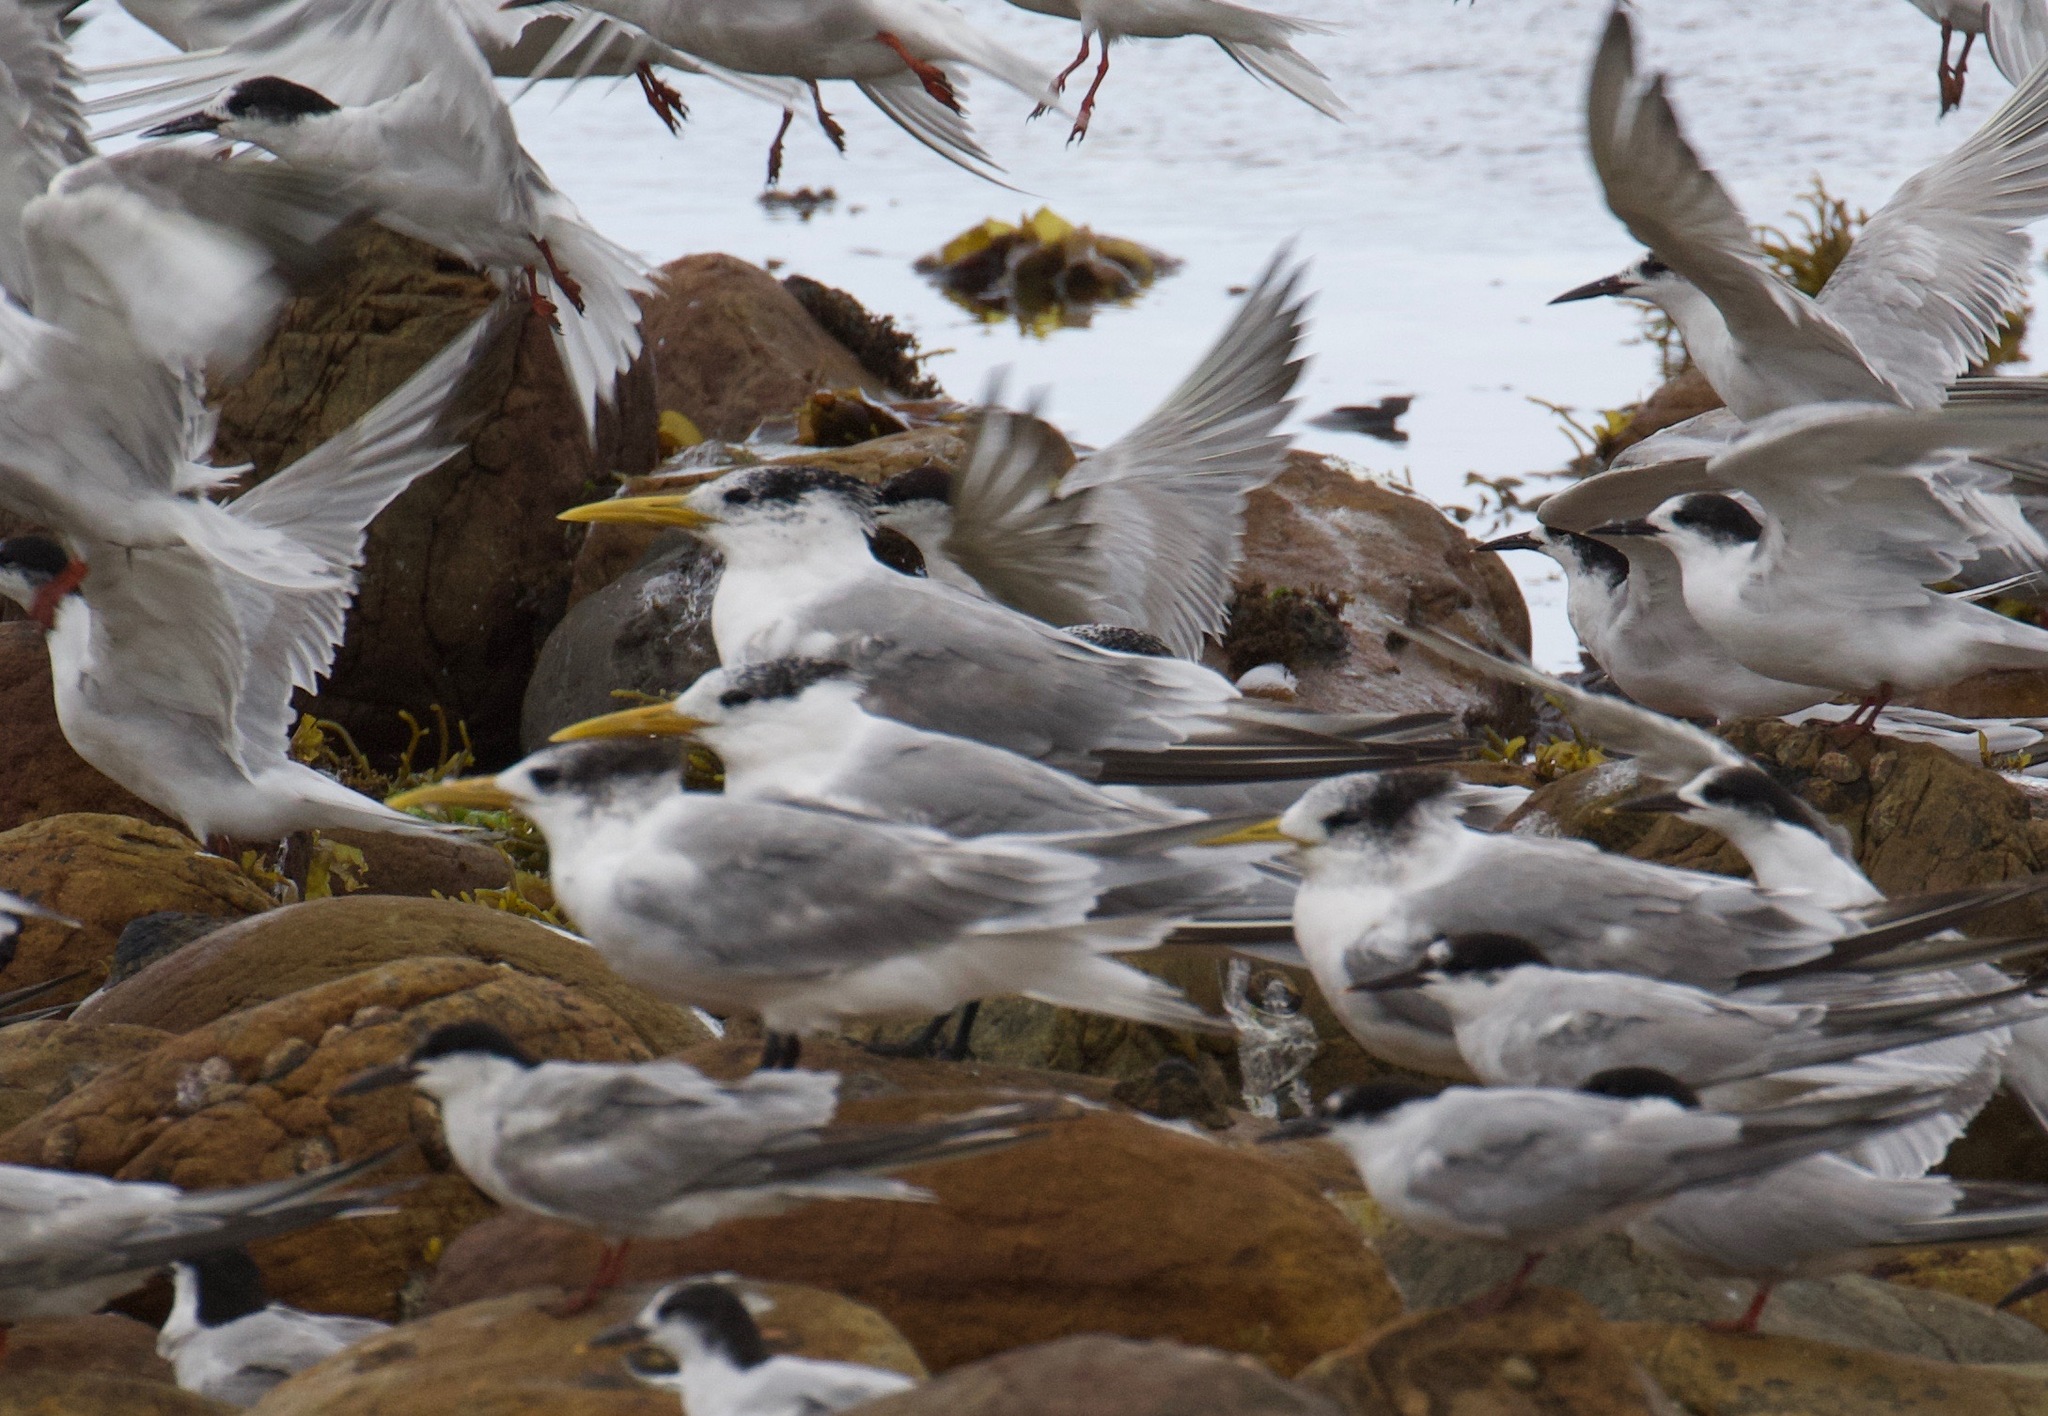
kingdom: Animalia
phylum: Chordata
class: Aves
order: Charadriiformes
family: Laridae
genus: Thalasseus
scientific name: Thalasseus bergii
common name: Greater crested tern
